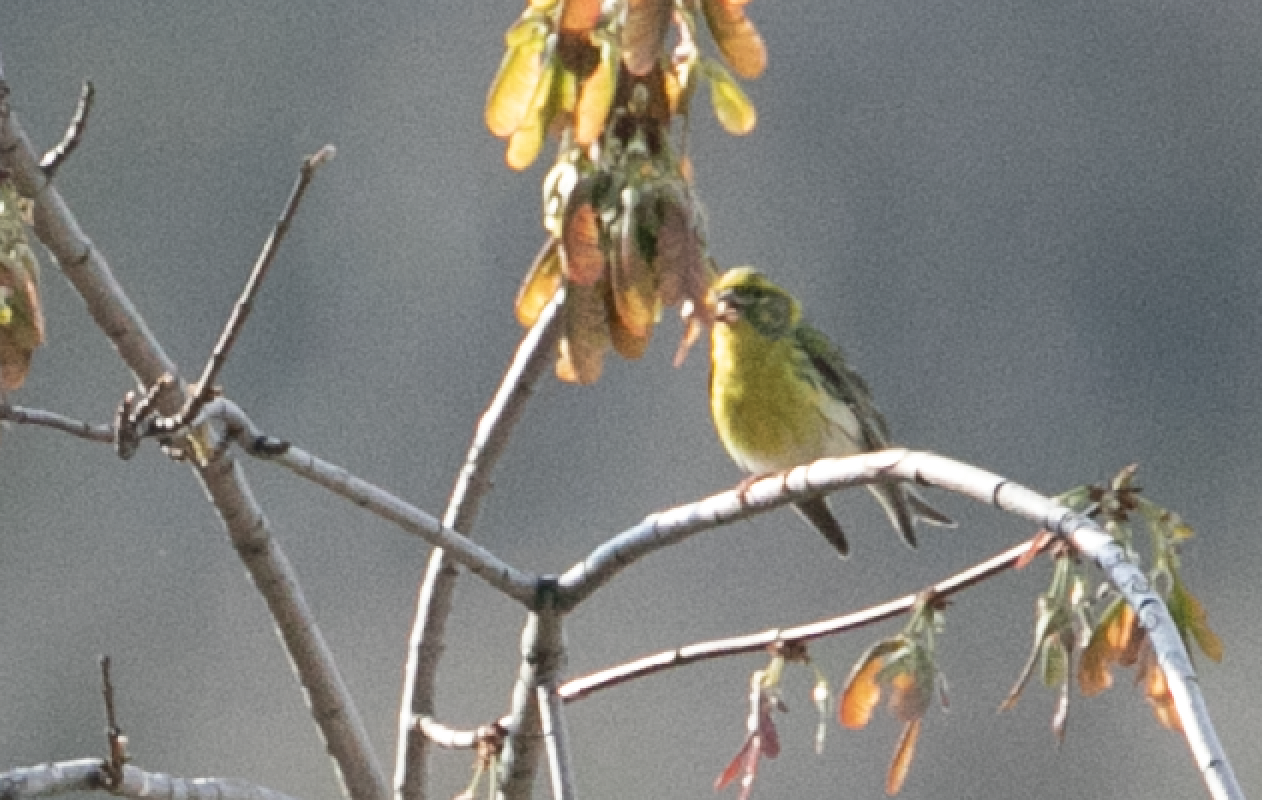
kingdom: Animalia
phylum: Chordata
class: Aves
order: Passeriformes
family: Fringillidae
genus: Serinus
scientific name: Serinus serinus
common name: European serin
